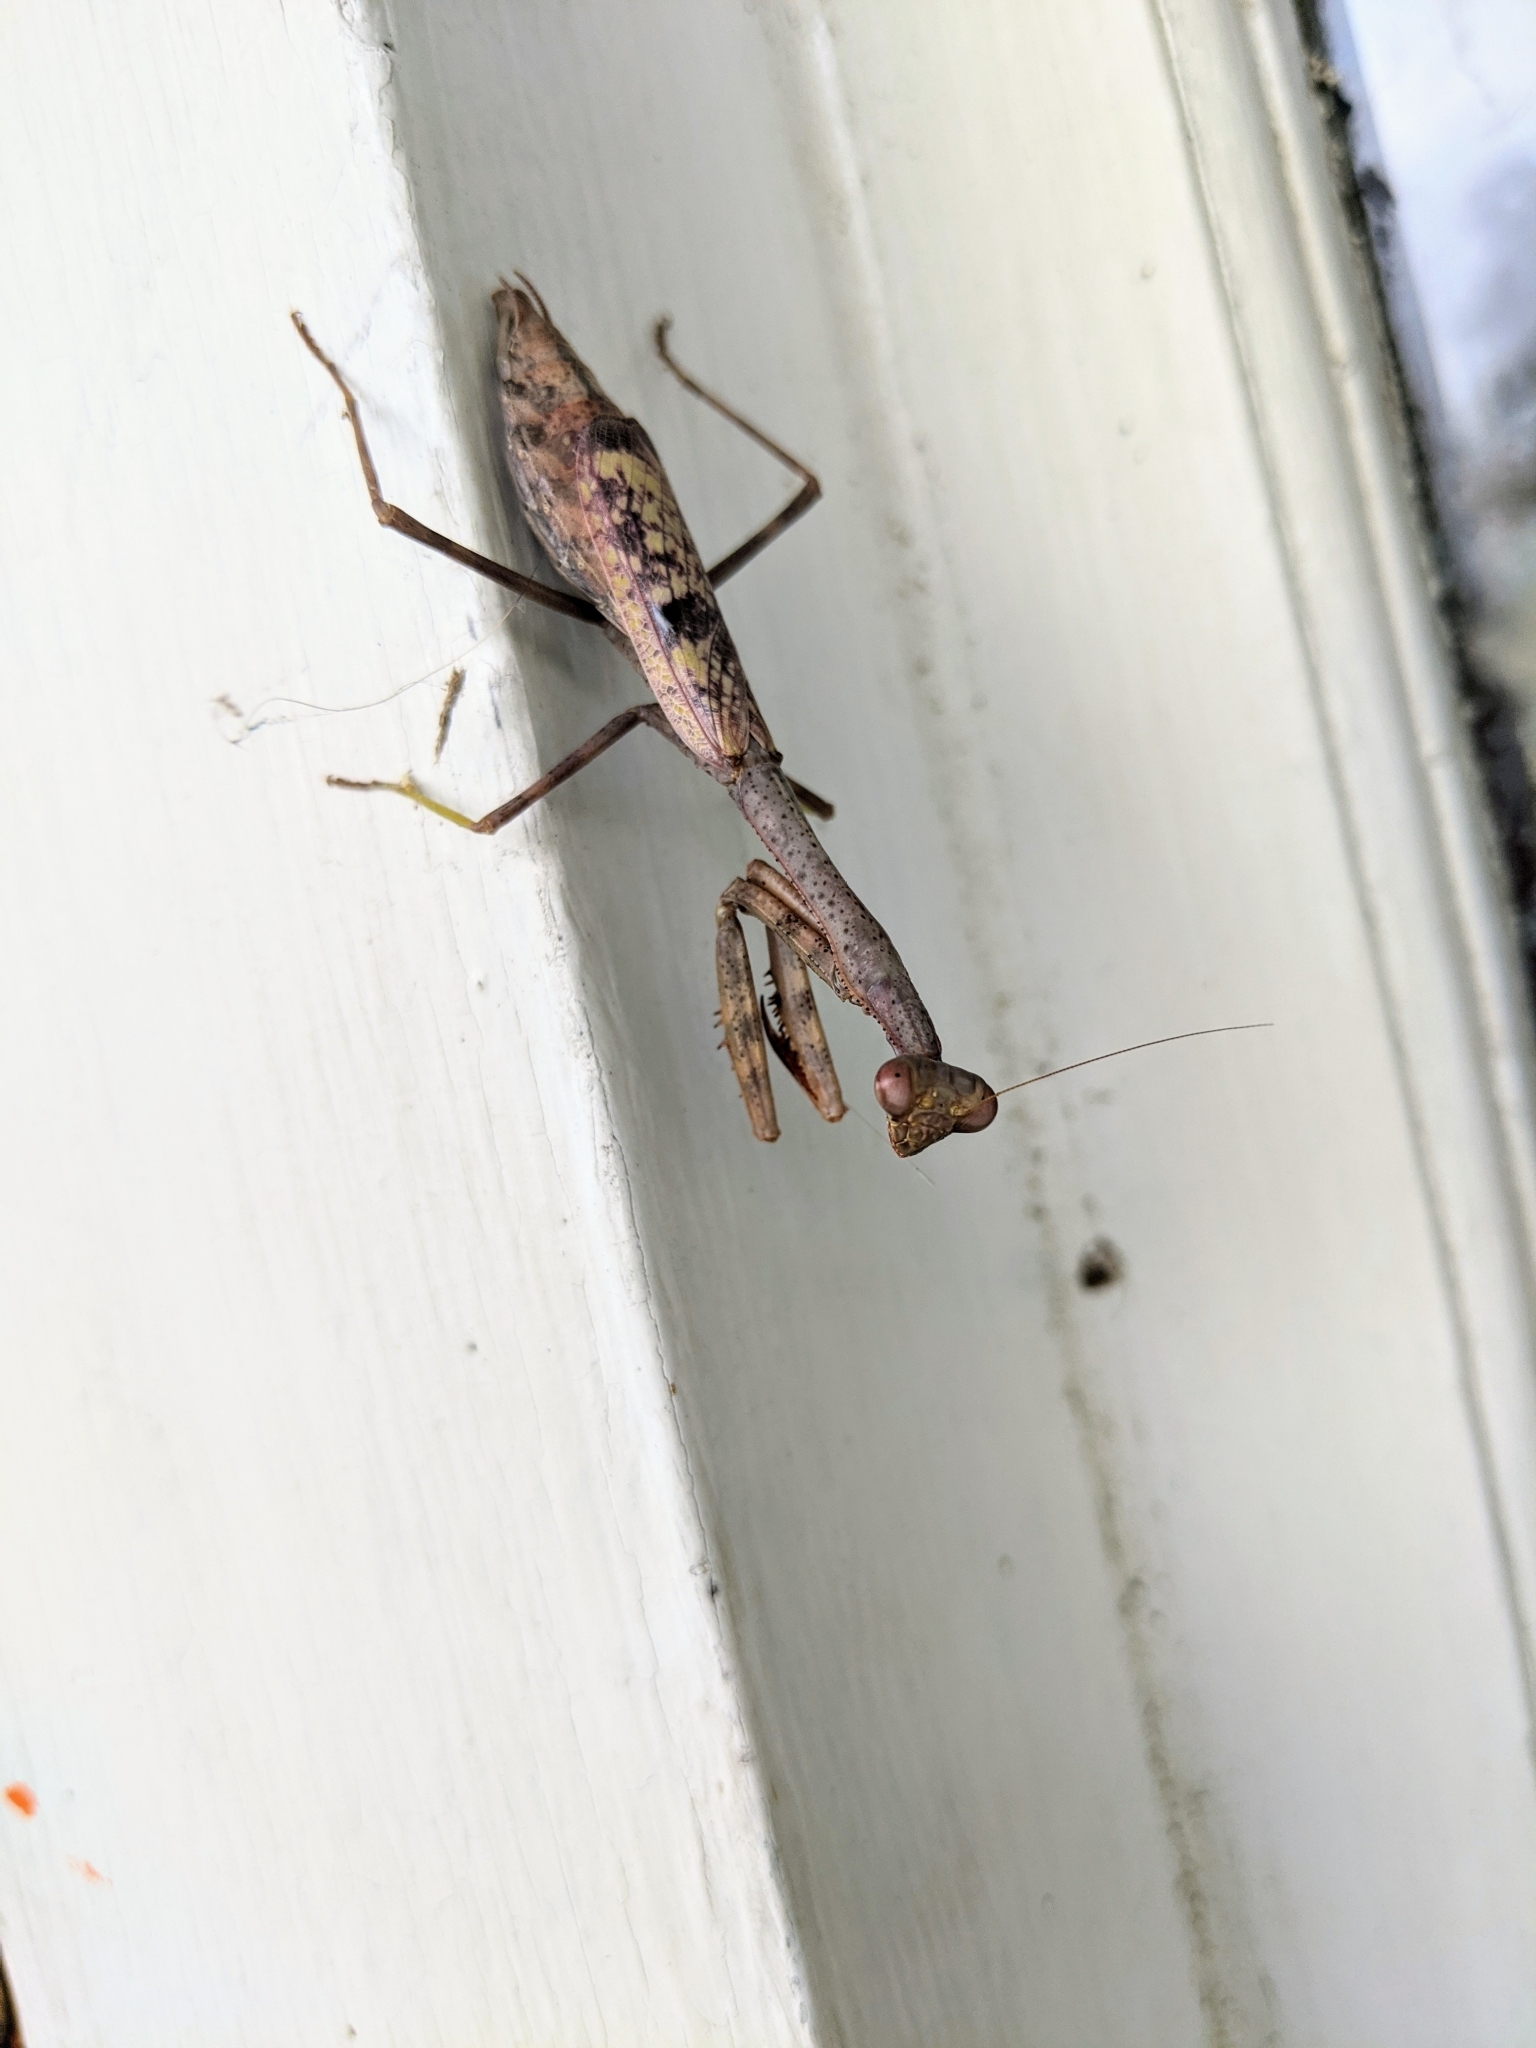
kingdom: Animalia
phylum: Arthropoda
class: Insecta
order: Mantodea
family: Mantidae
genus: Stagmomantis
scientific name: Stagmomantis carolina
